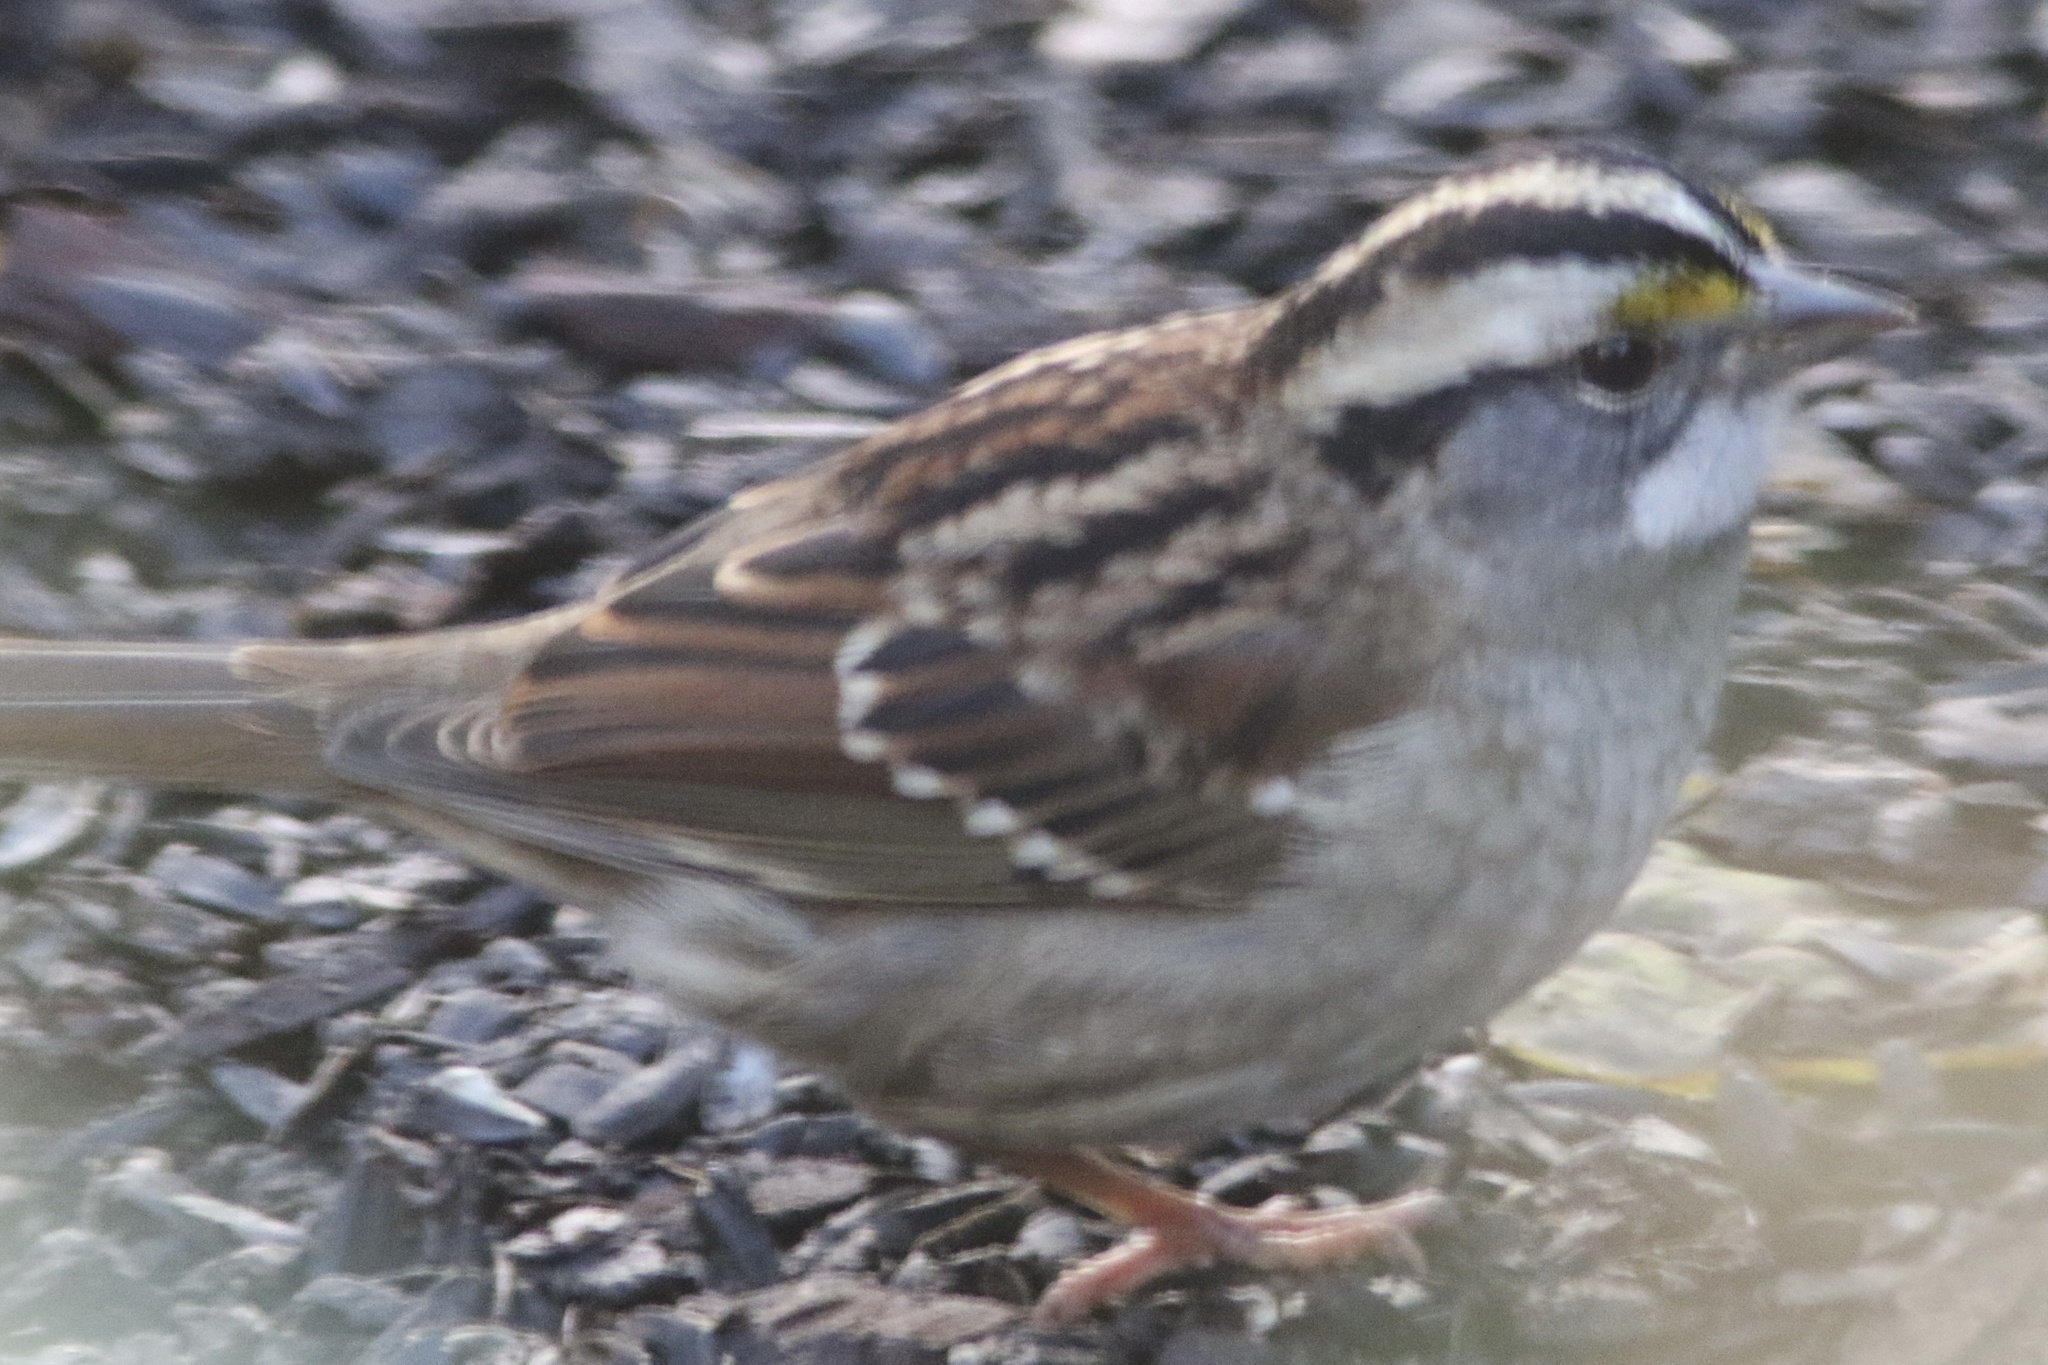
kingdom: Animalia
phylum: Chordata
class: Aves
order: Passeriformes
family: Passerellidae
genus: Zonotrichia
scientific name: Zonotrichia albicollis
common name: White-throated sparrow
